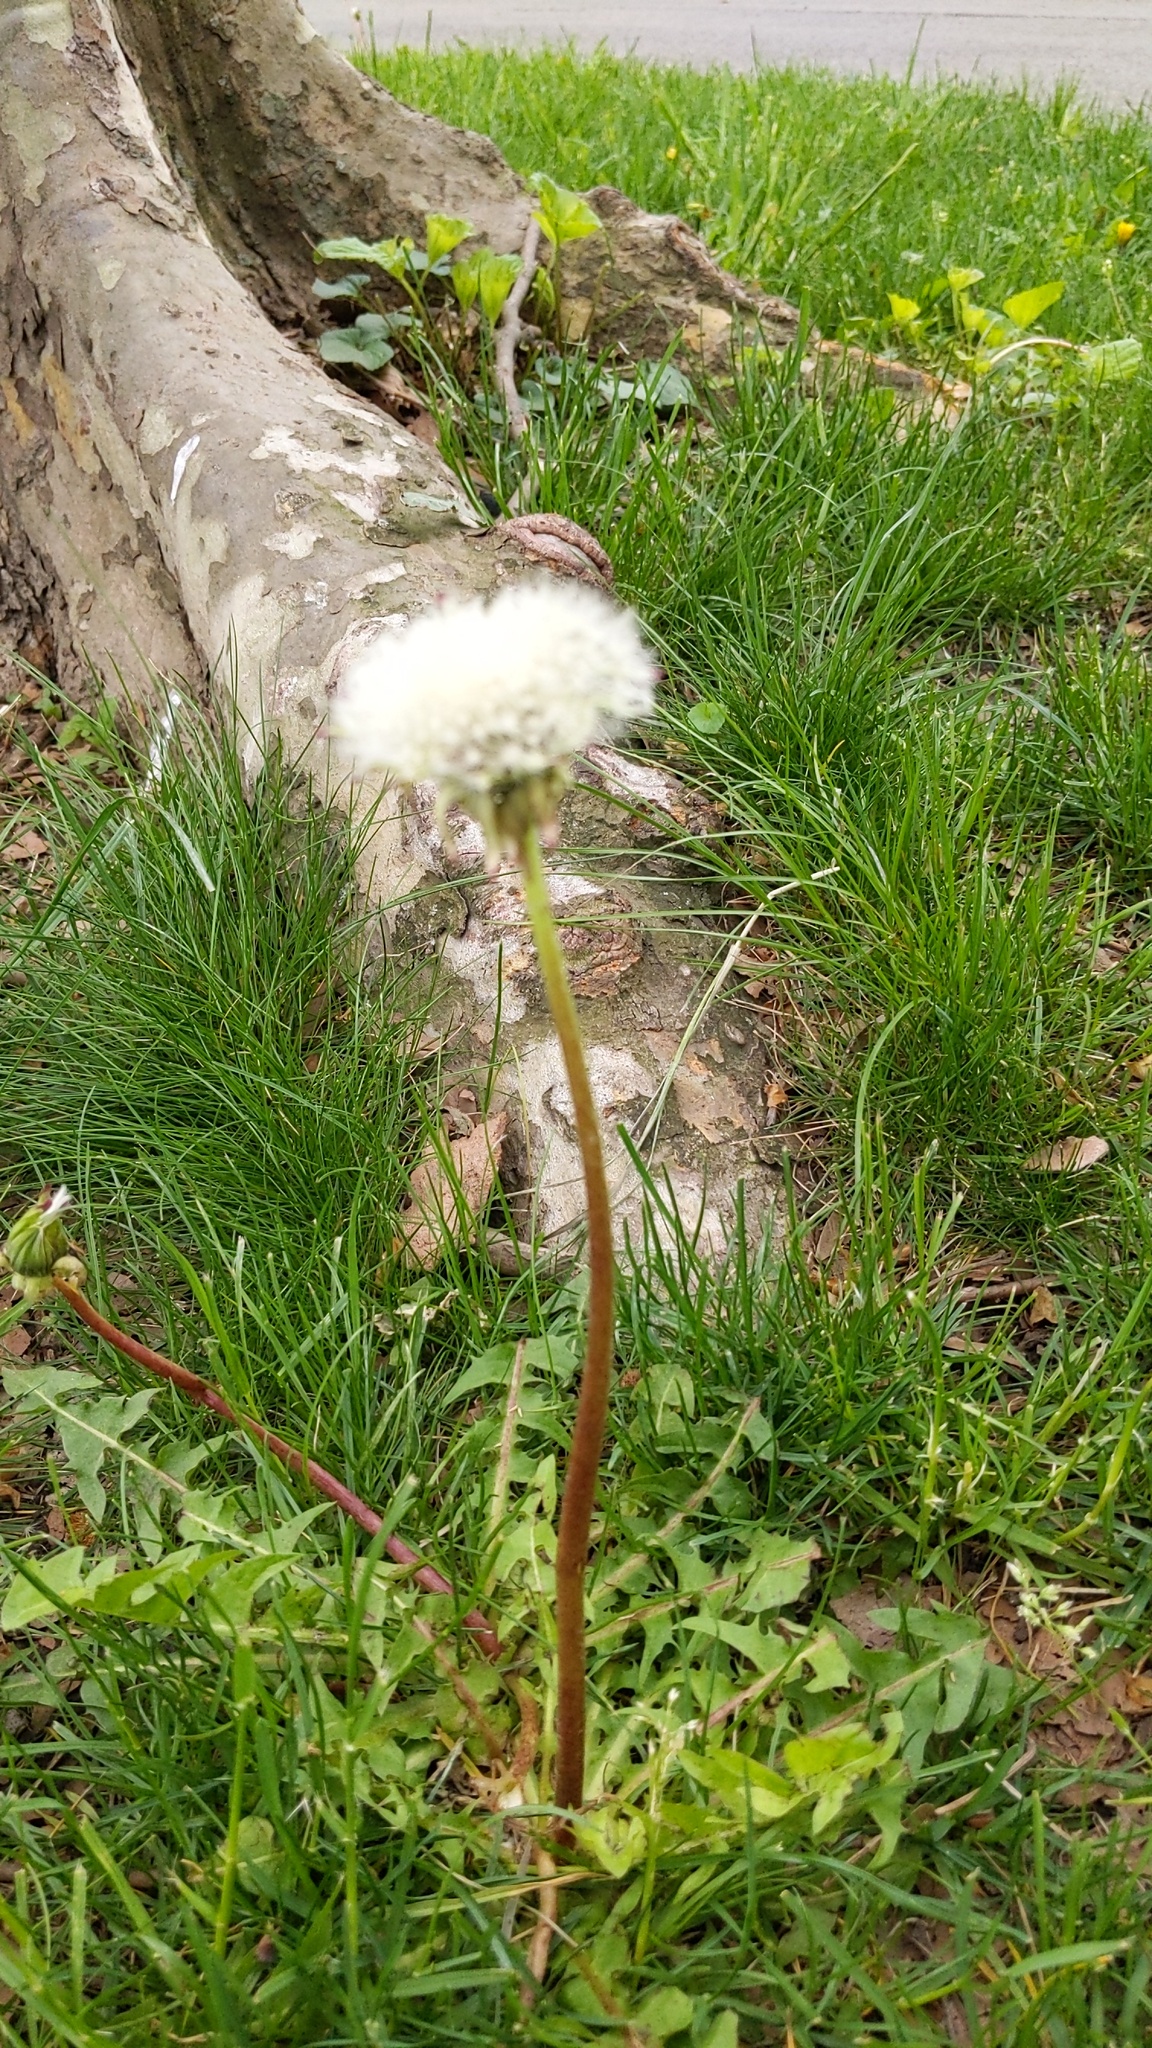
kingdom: Plantae
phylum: Tracheophyta
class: Magnoliopsida
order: Asterales
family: Asteraceae
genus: Taraxacum
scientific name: Taraxacum officinale
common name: Common dandelion
